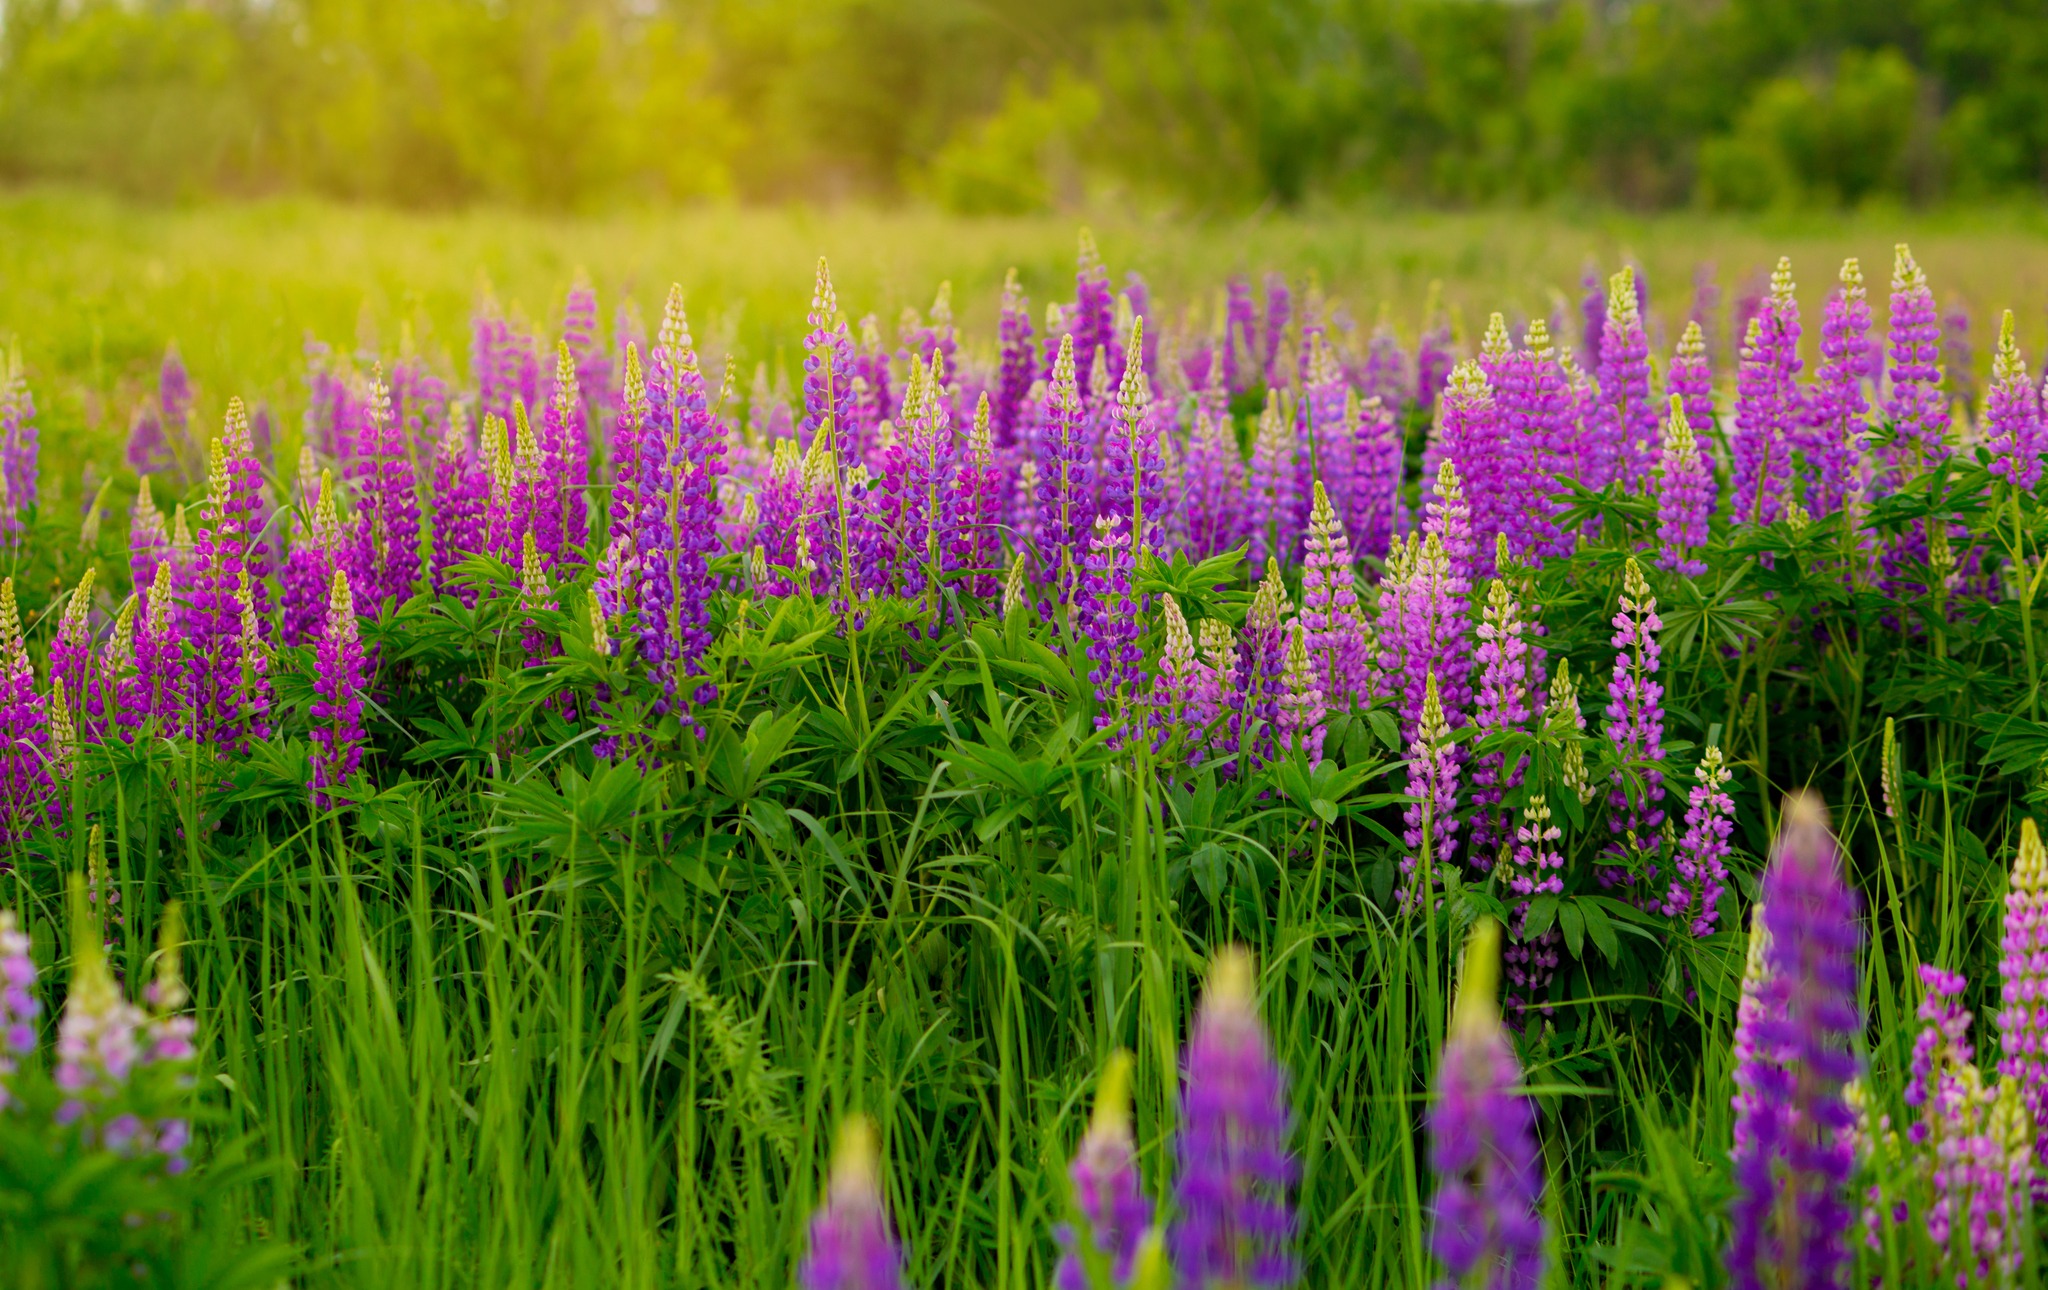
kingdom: Plantae
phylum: Tracheophyta
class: Magnoliopsida
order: Fabales
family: Fabaceae
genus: Lupinus
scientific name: Lupinus polyphyllus
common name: Garden lupin
